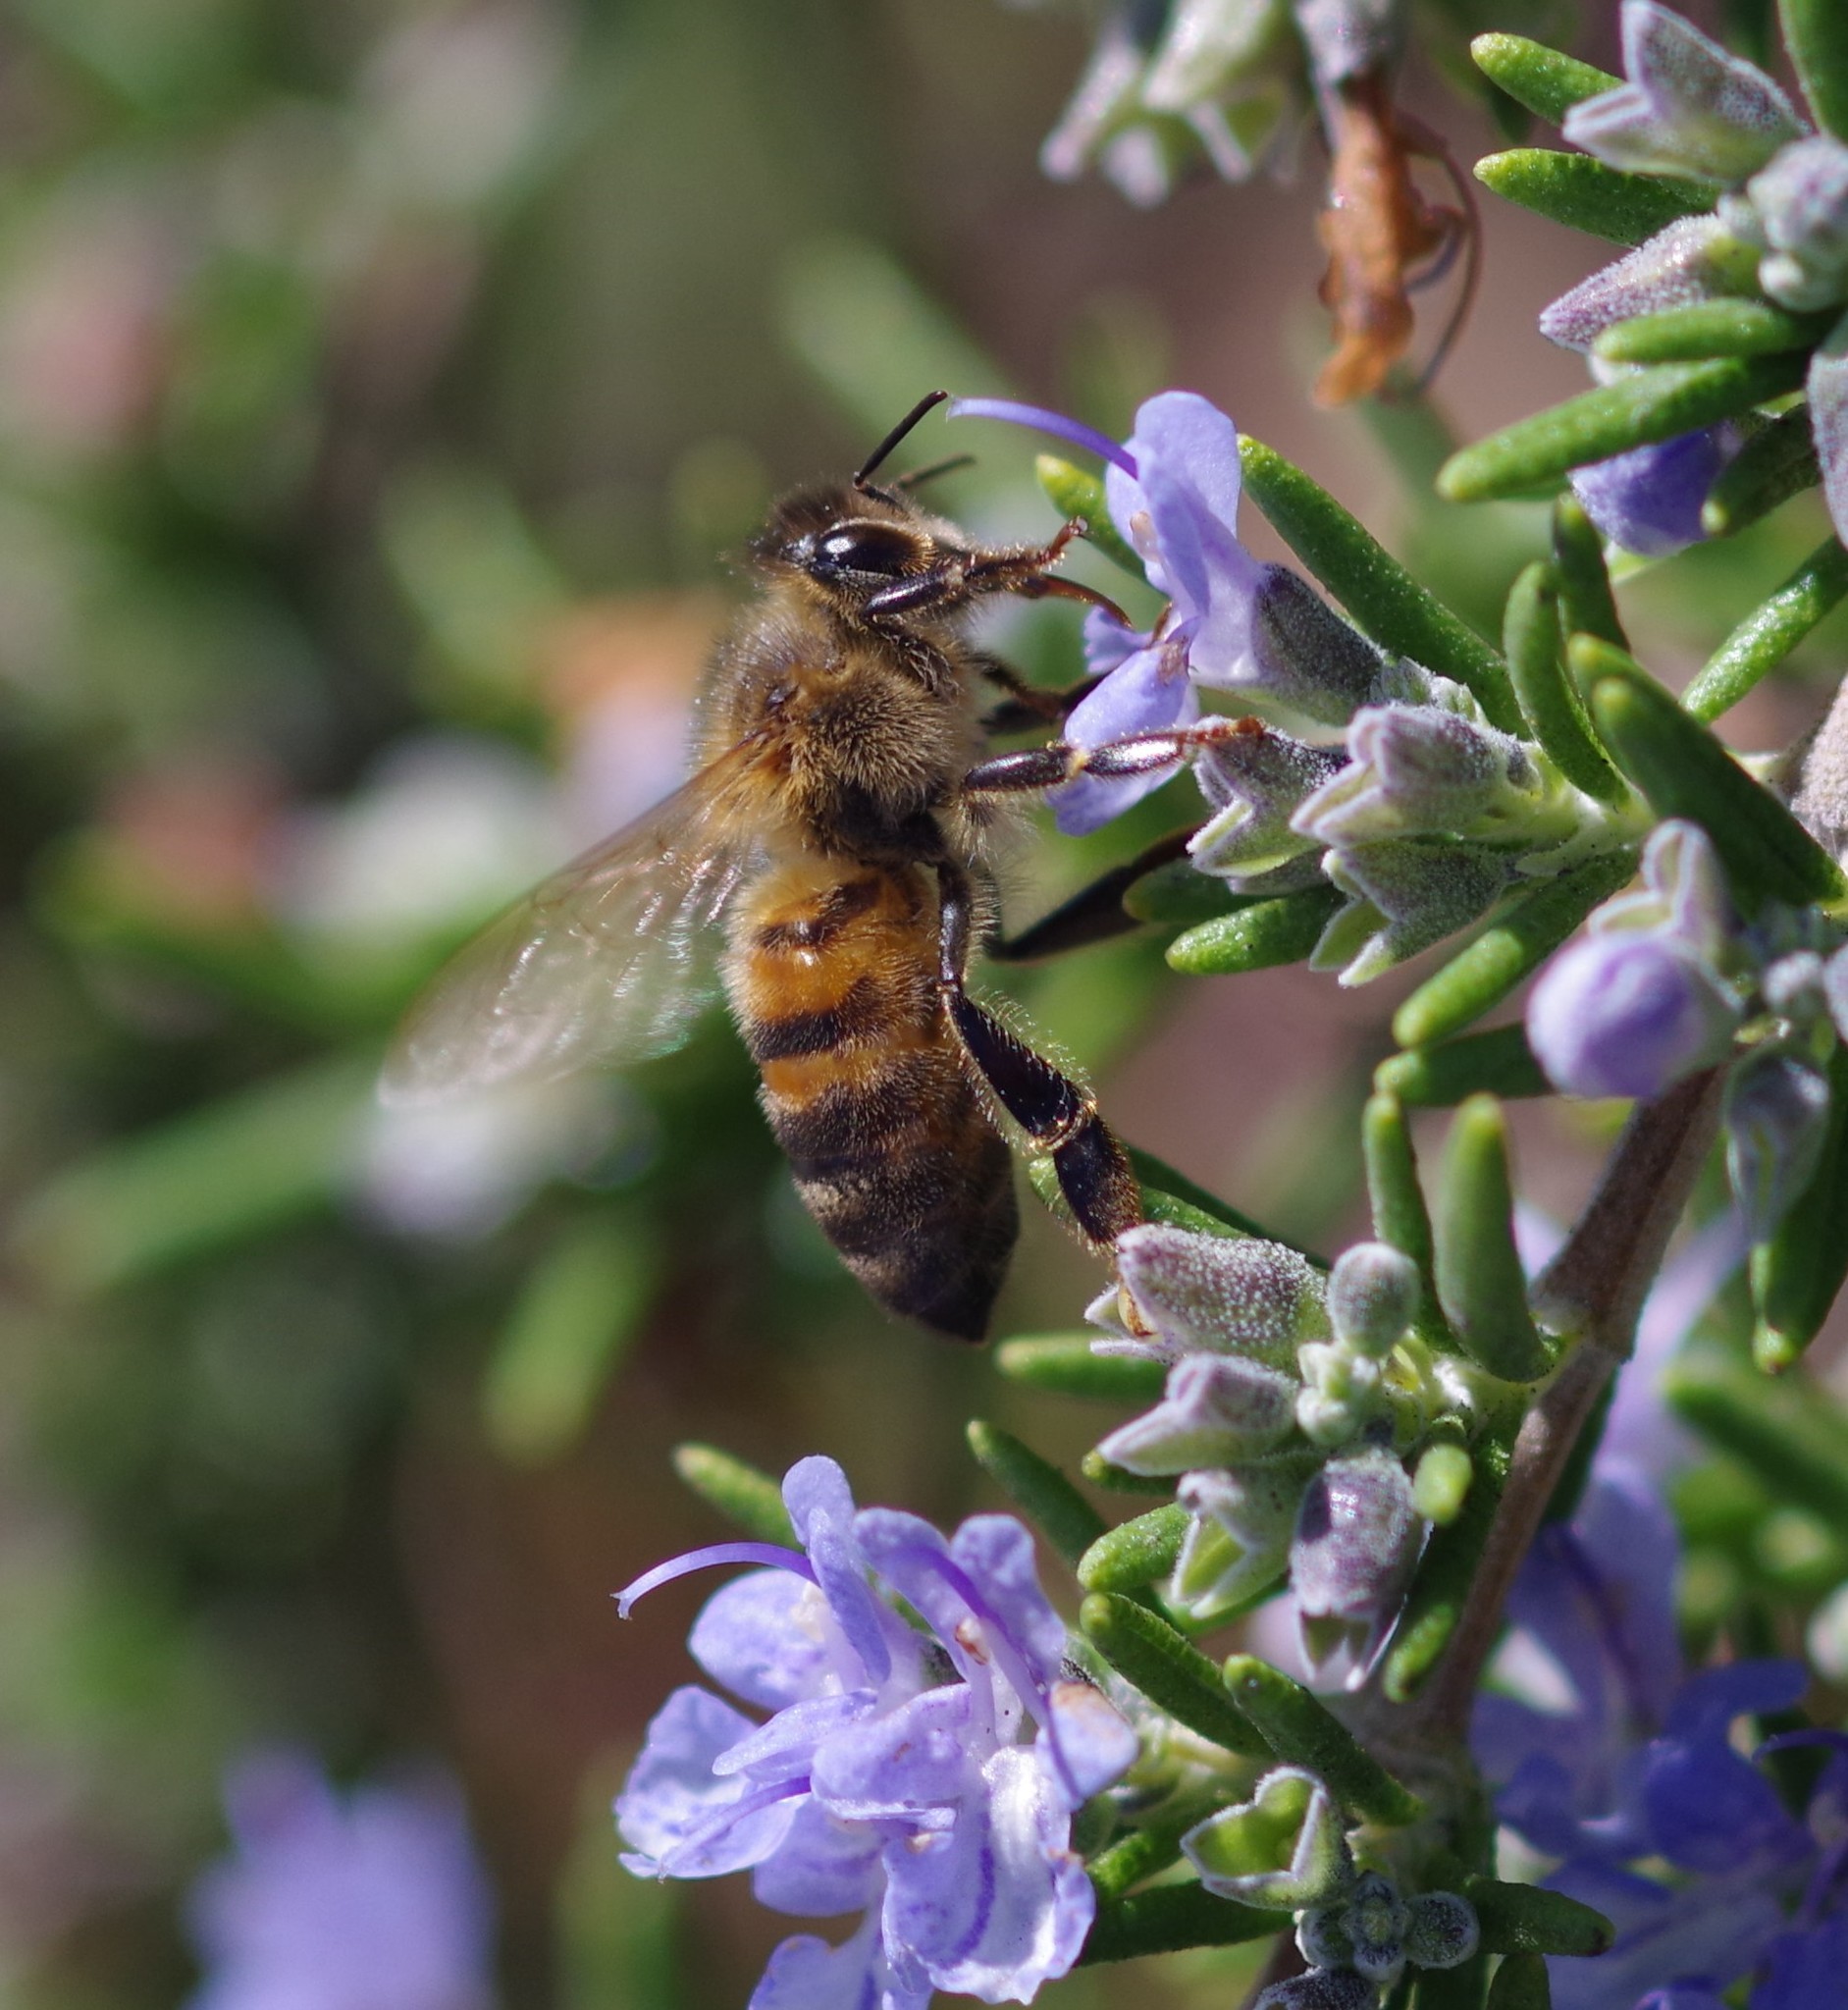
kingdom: Animalia
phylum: Arthropoda
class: Insecta
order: Hymenoptera
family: Apidae
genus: Apis
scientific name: Apis mellifera
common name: Honey bee
